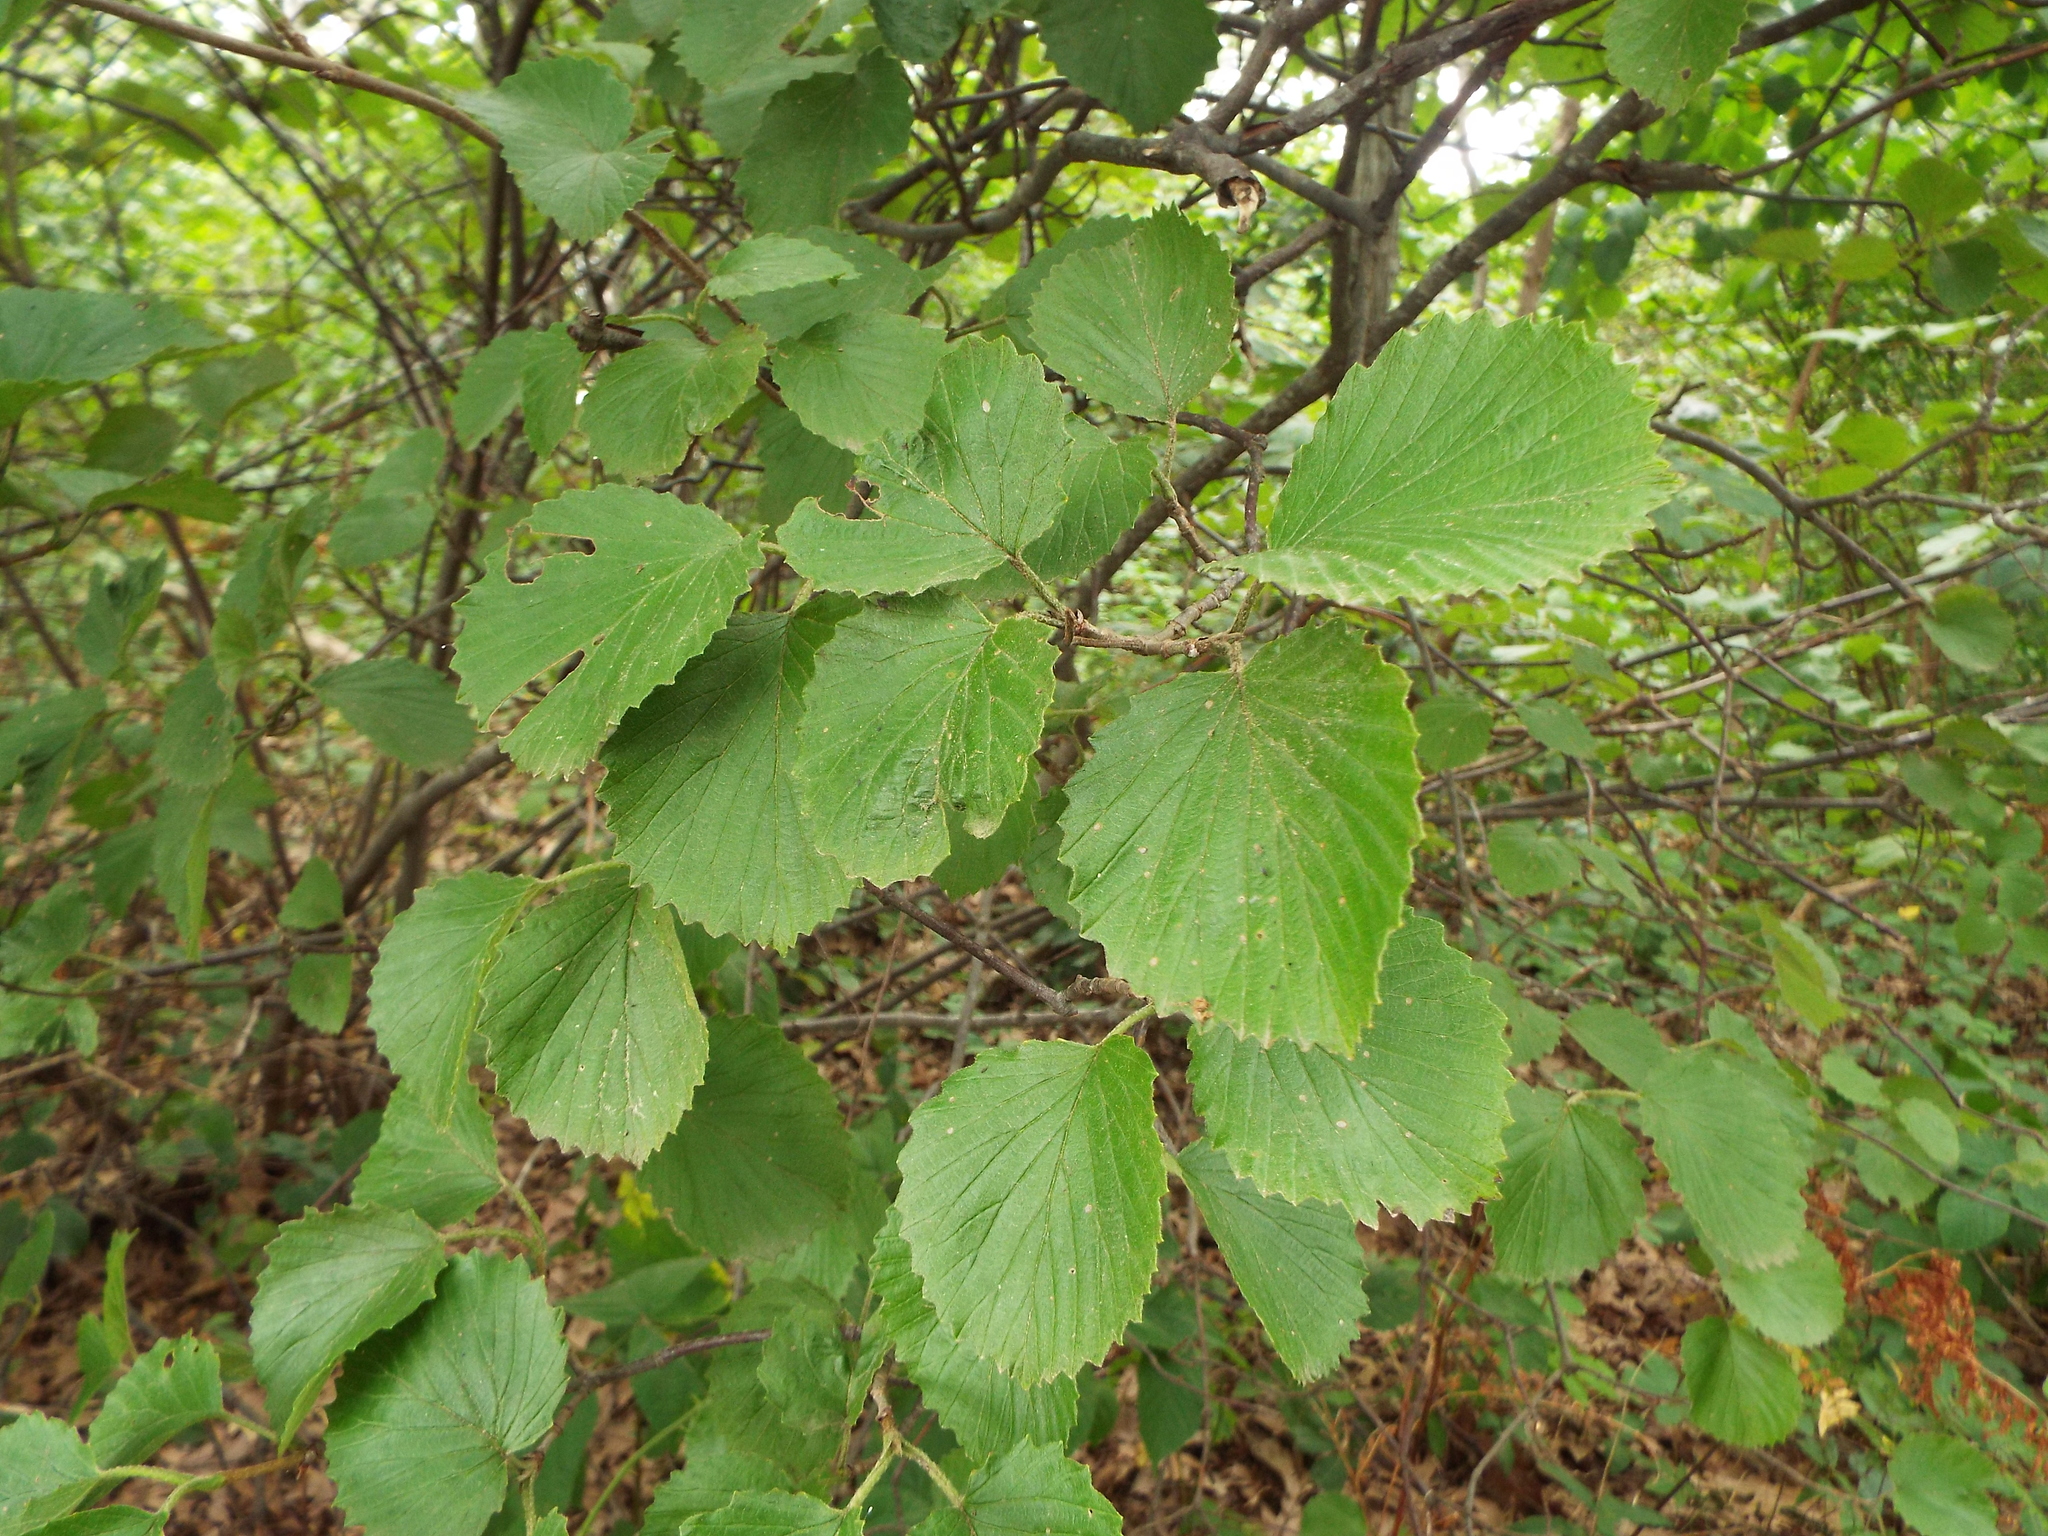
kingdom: Plantae
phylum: Tracheophyta
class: Magnoliopsida
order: Dipsacales
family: Viburnaceae
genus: Viburnum
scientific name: Viburnum dentatum
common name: Arrow-wood
